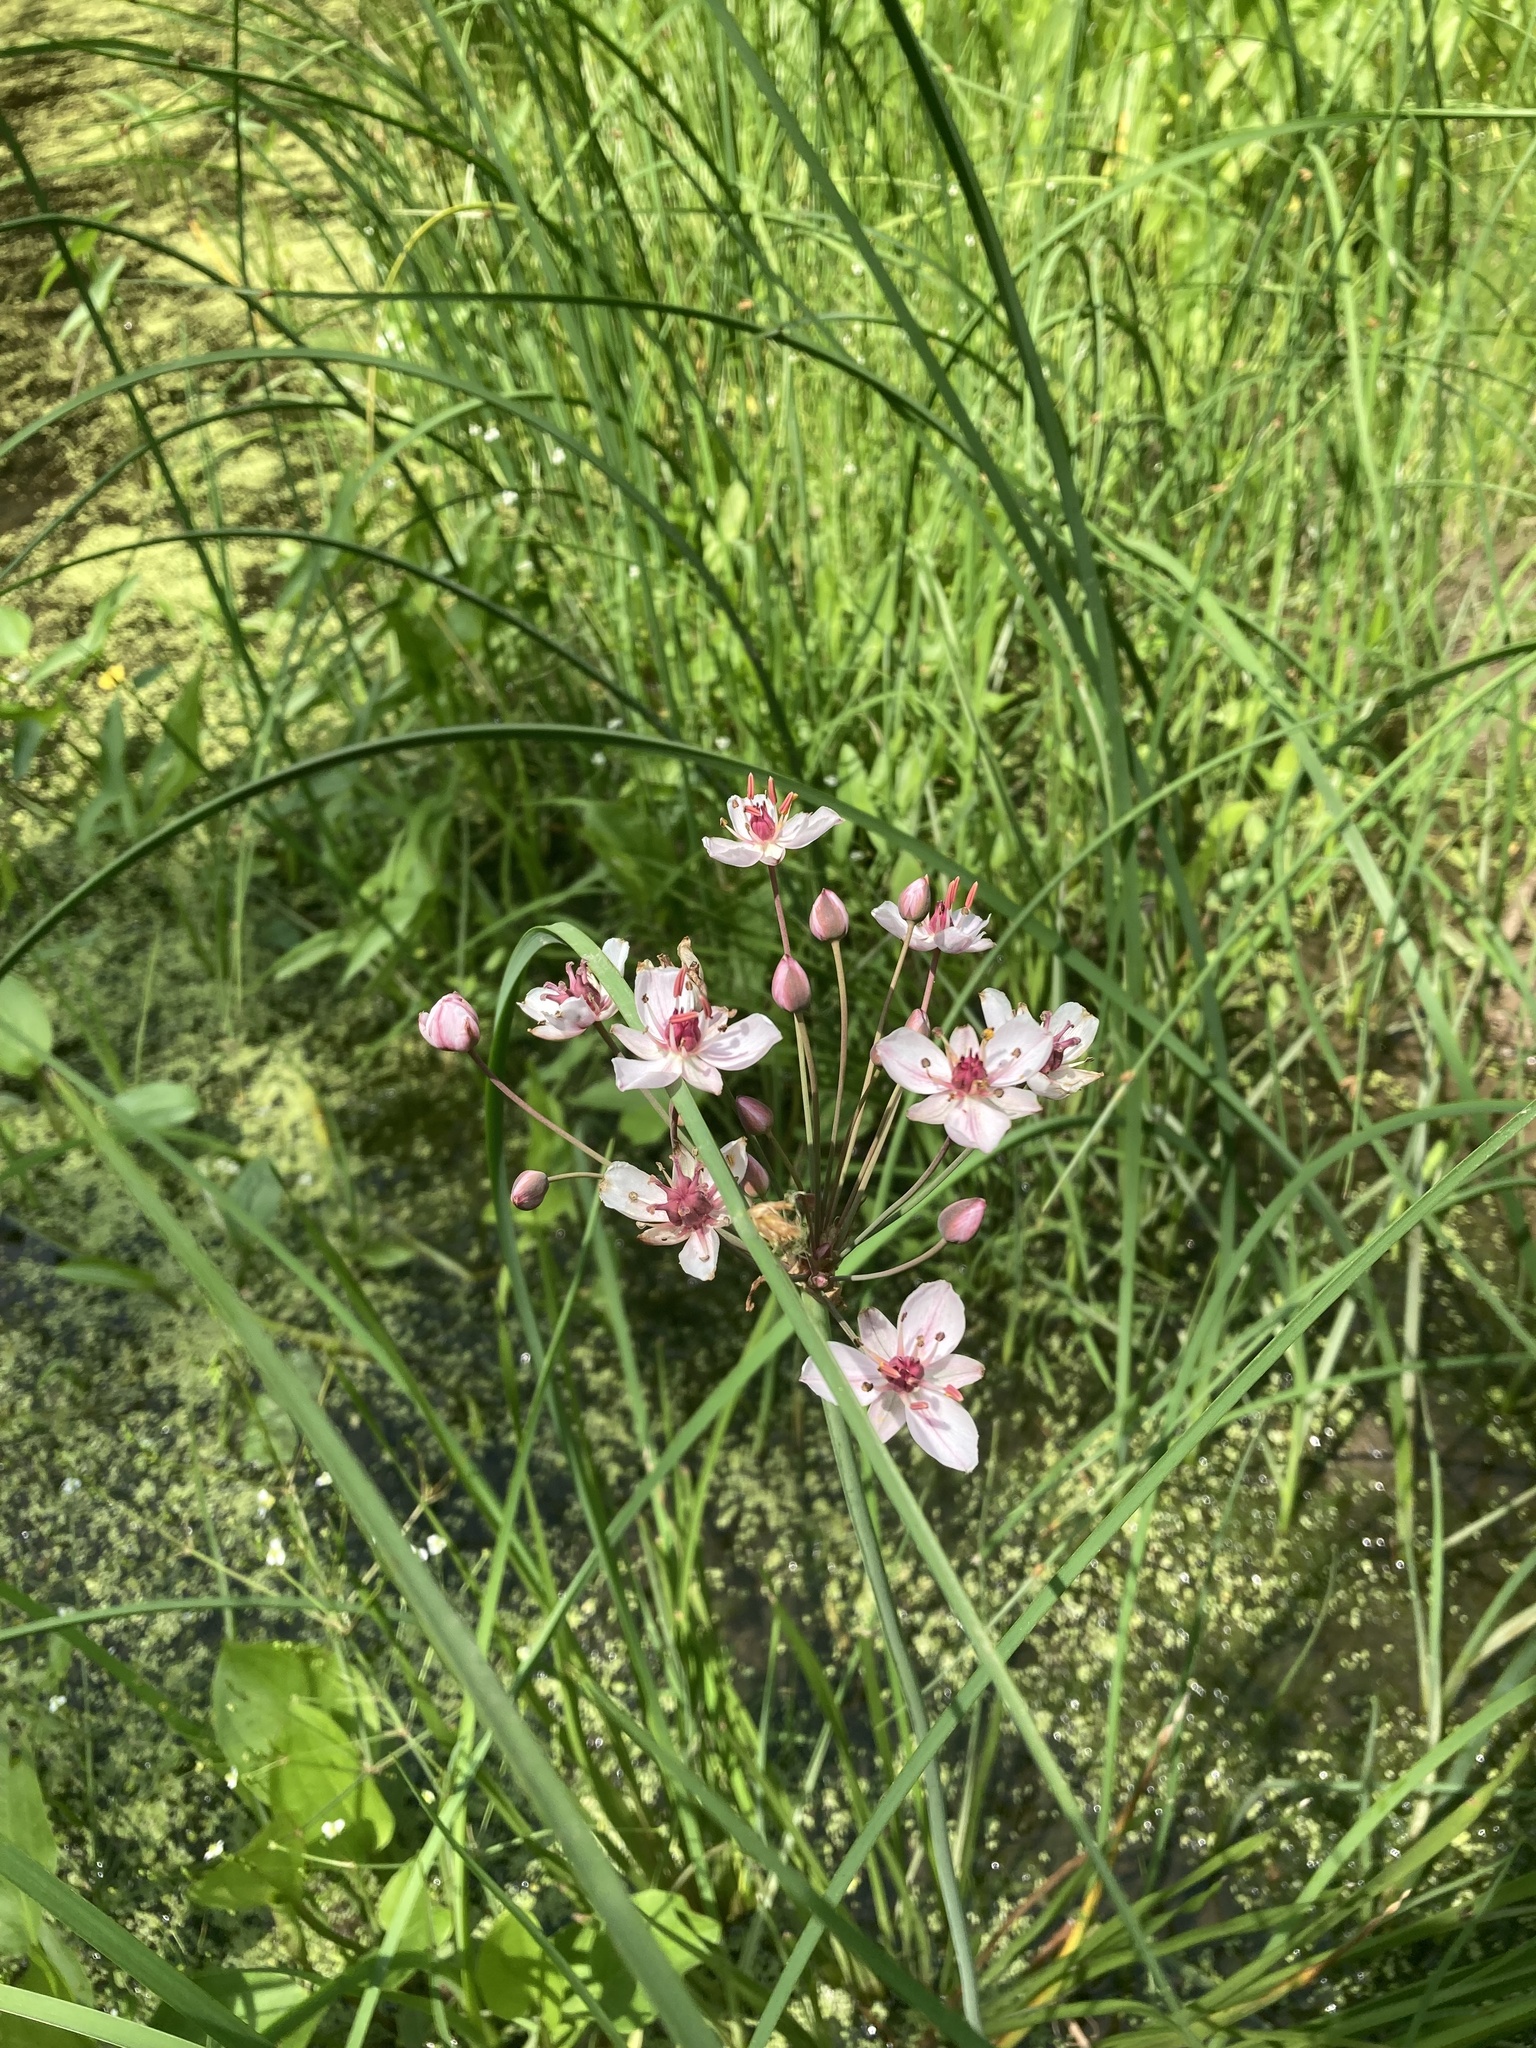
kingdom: Plantae
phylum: Tracheophyta
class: Liliopsida
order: Alismatales
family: Butomaceae
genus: Butomus
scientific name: Butomus umbellatus
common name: Flowering-rush
